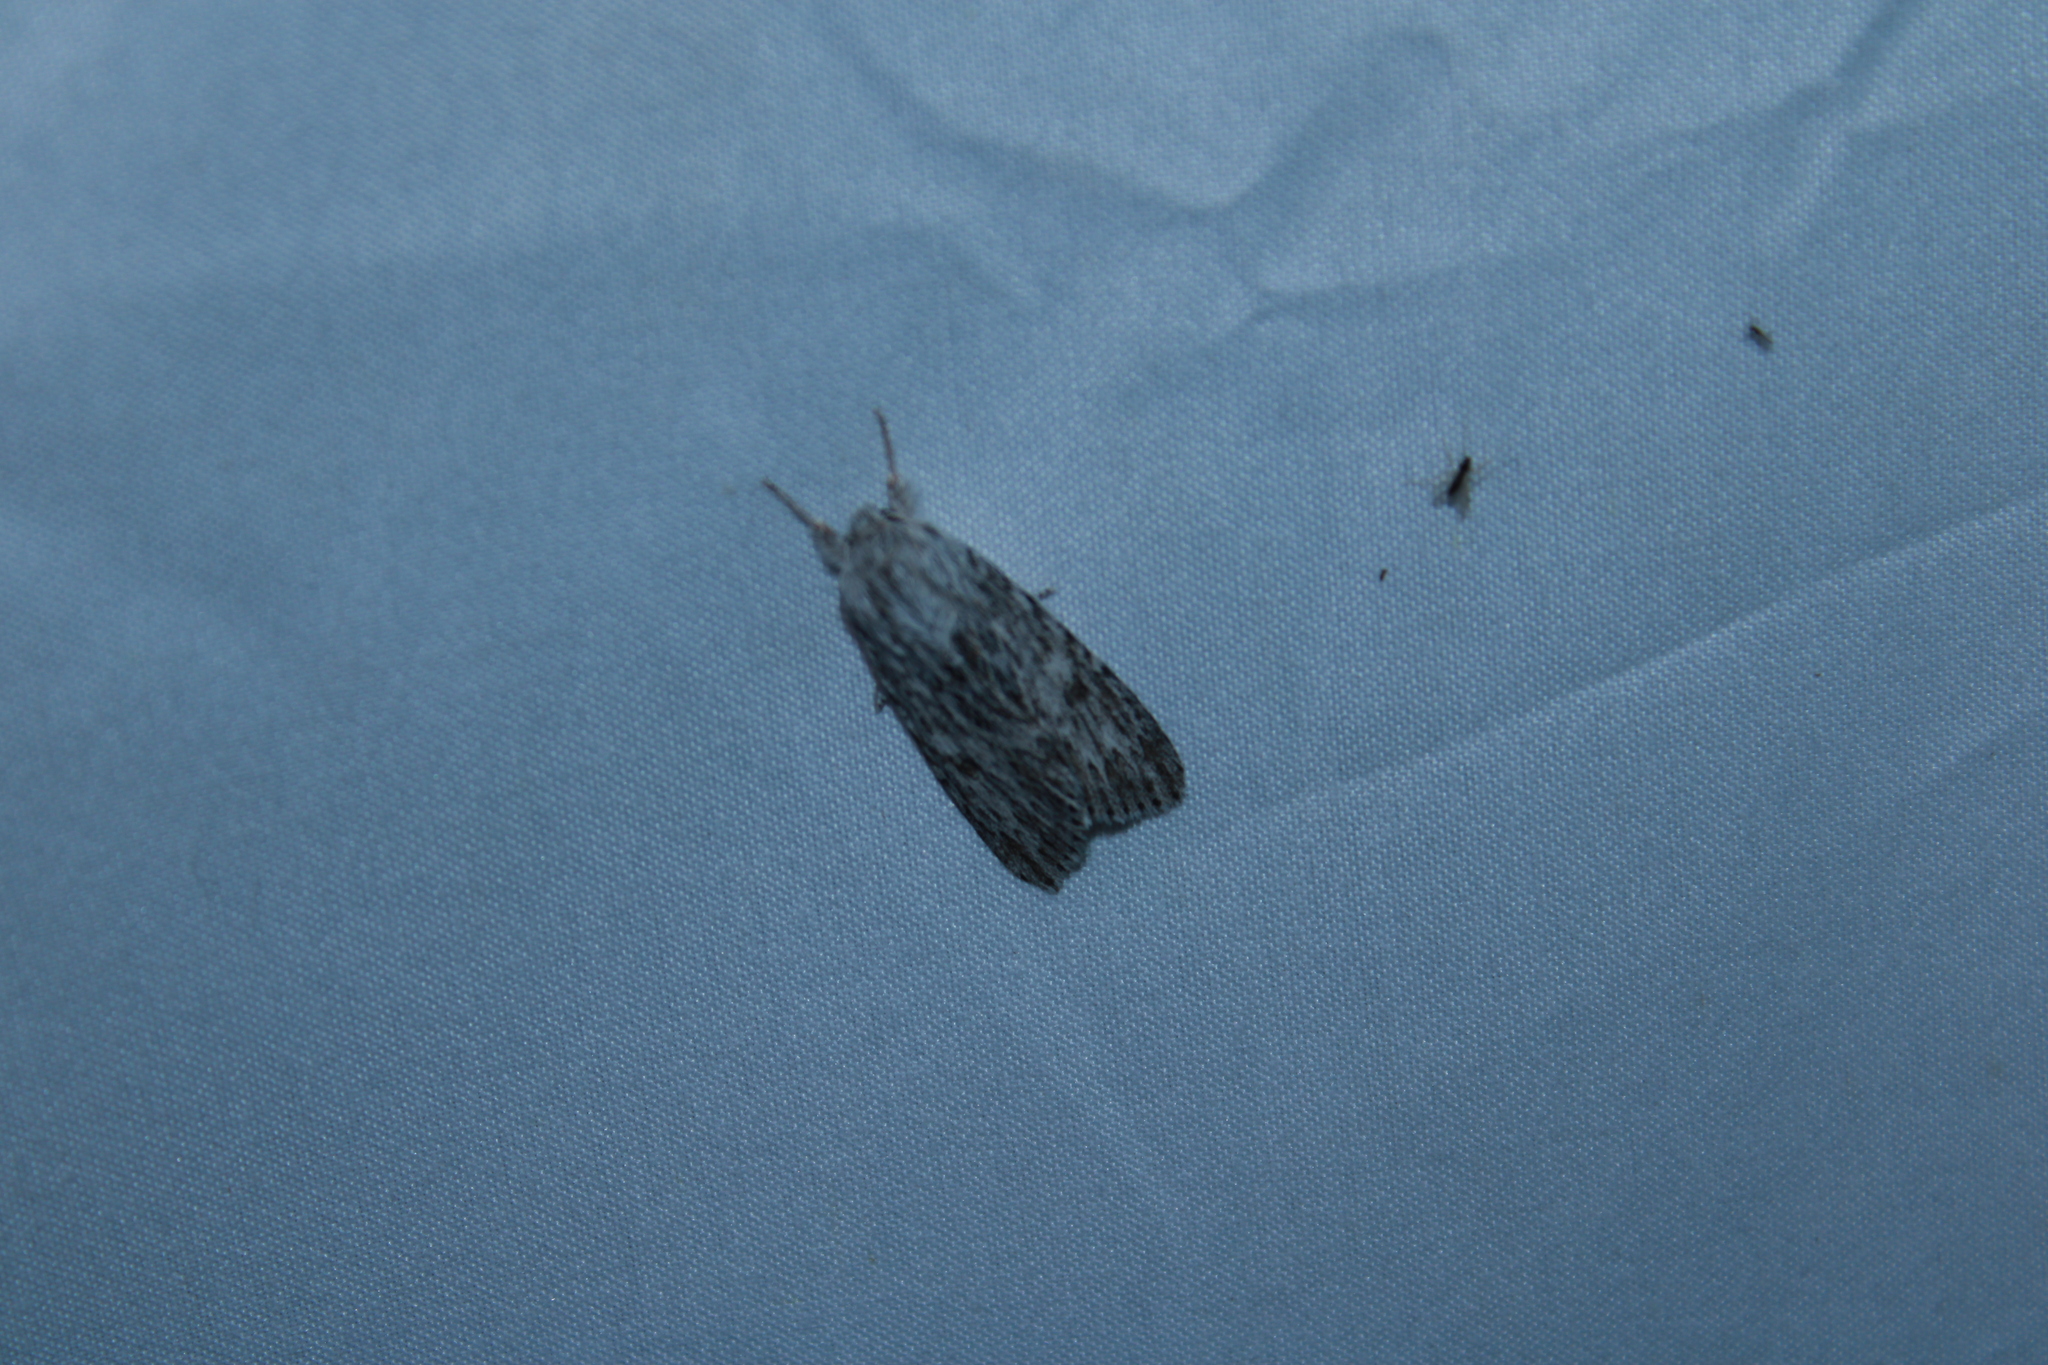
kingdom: Animalia
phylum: Arthropoda
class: Insecta
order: Lepidoptera
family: Noctuidae
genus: Acronicta
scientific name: Acronicta oblinita
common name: Smeared dagger
